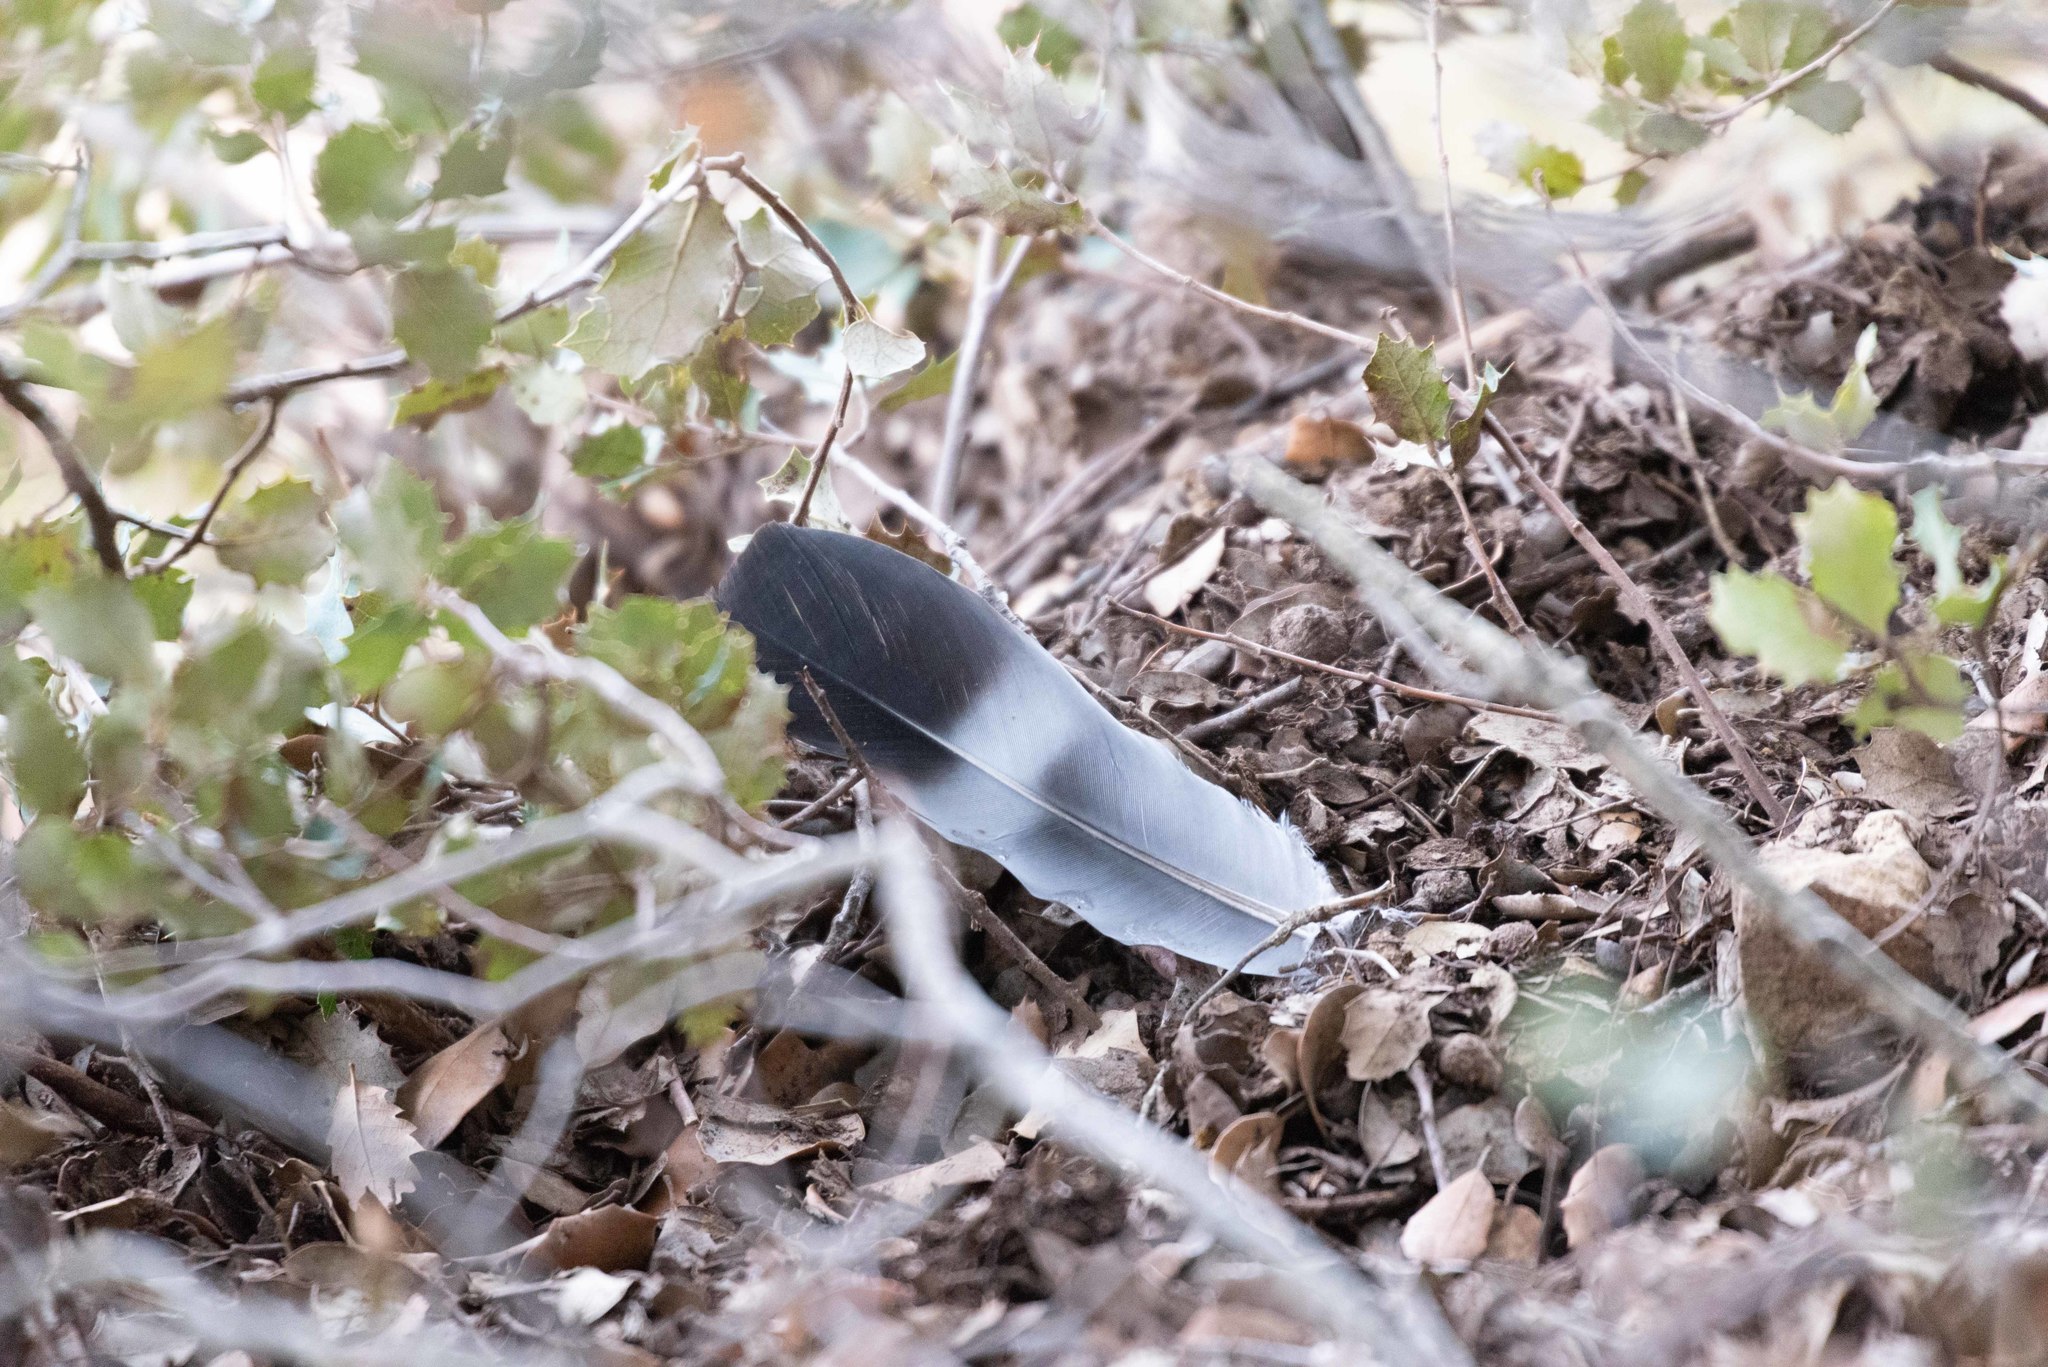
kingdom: Animalia
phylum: Chordata
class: Aves
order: Columbiformes
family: Columbidae
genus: Columba
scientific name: Columba palumbus
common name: Common wood pigeon
